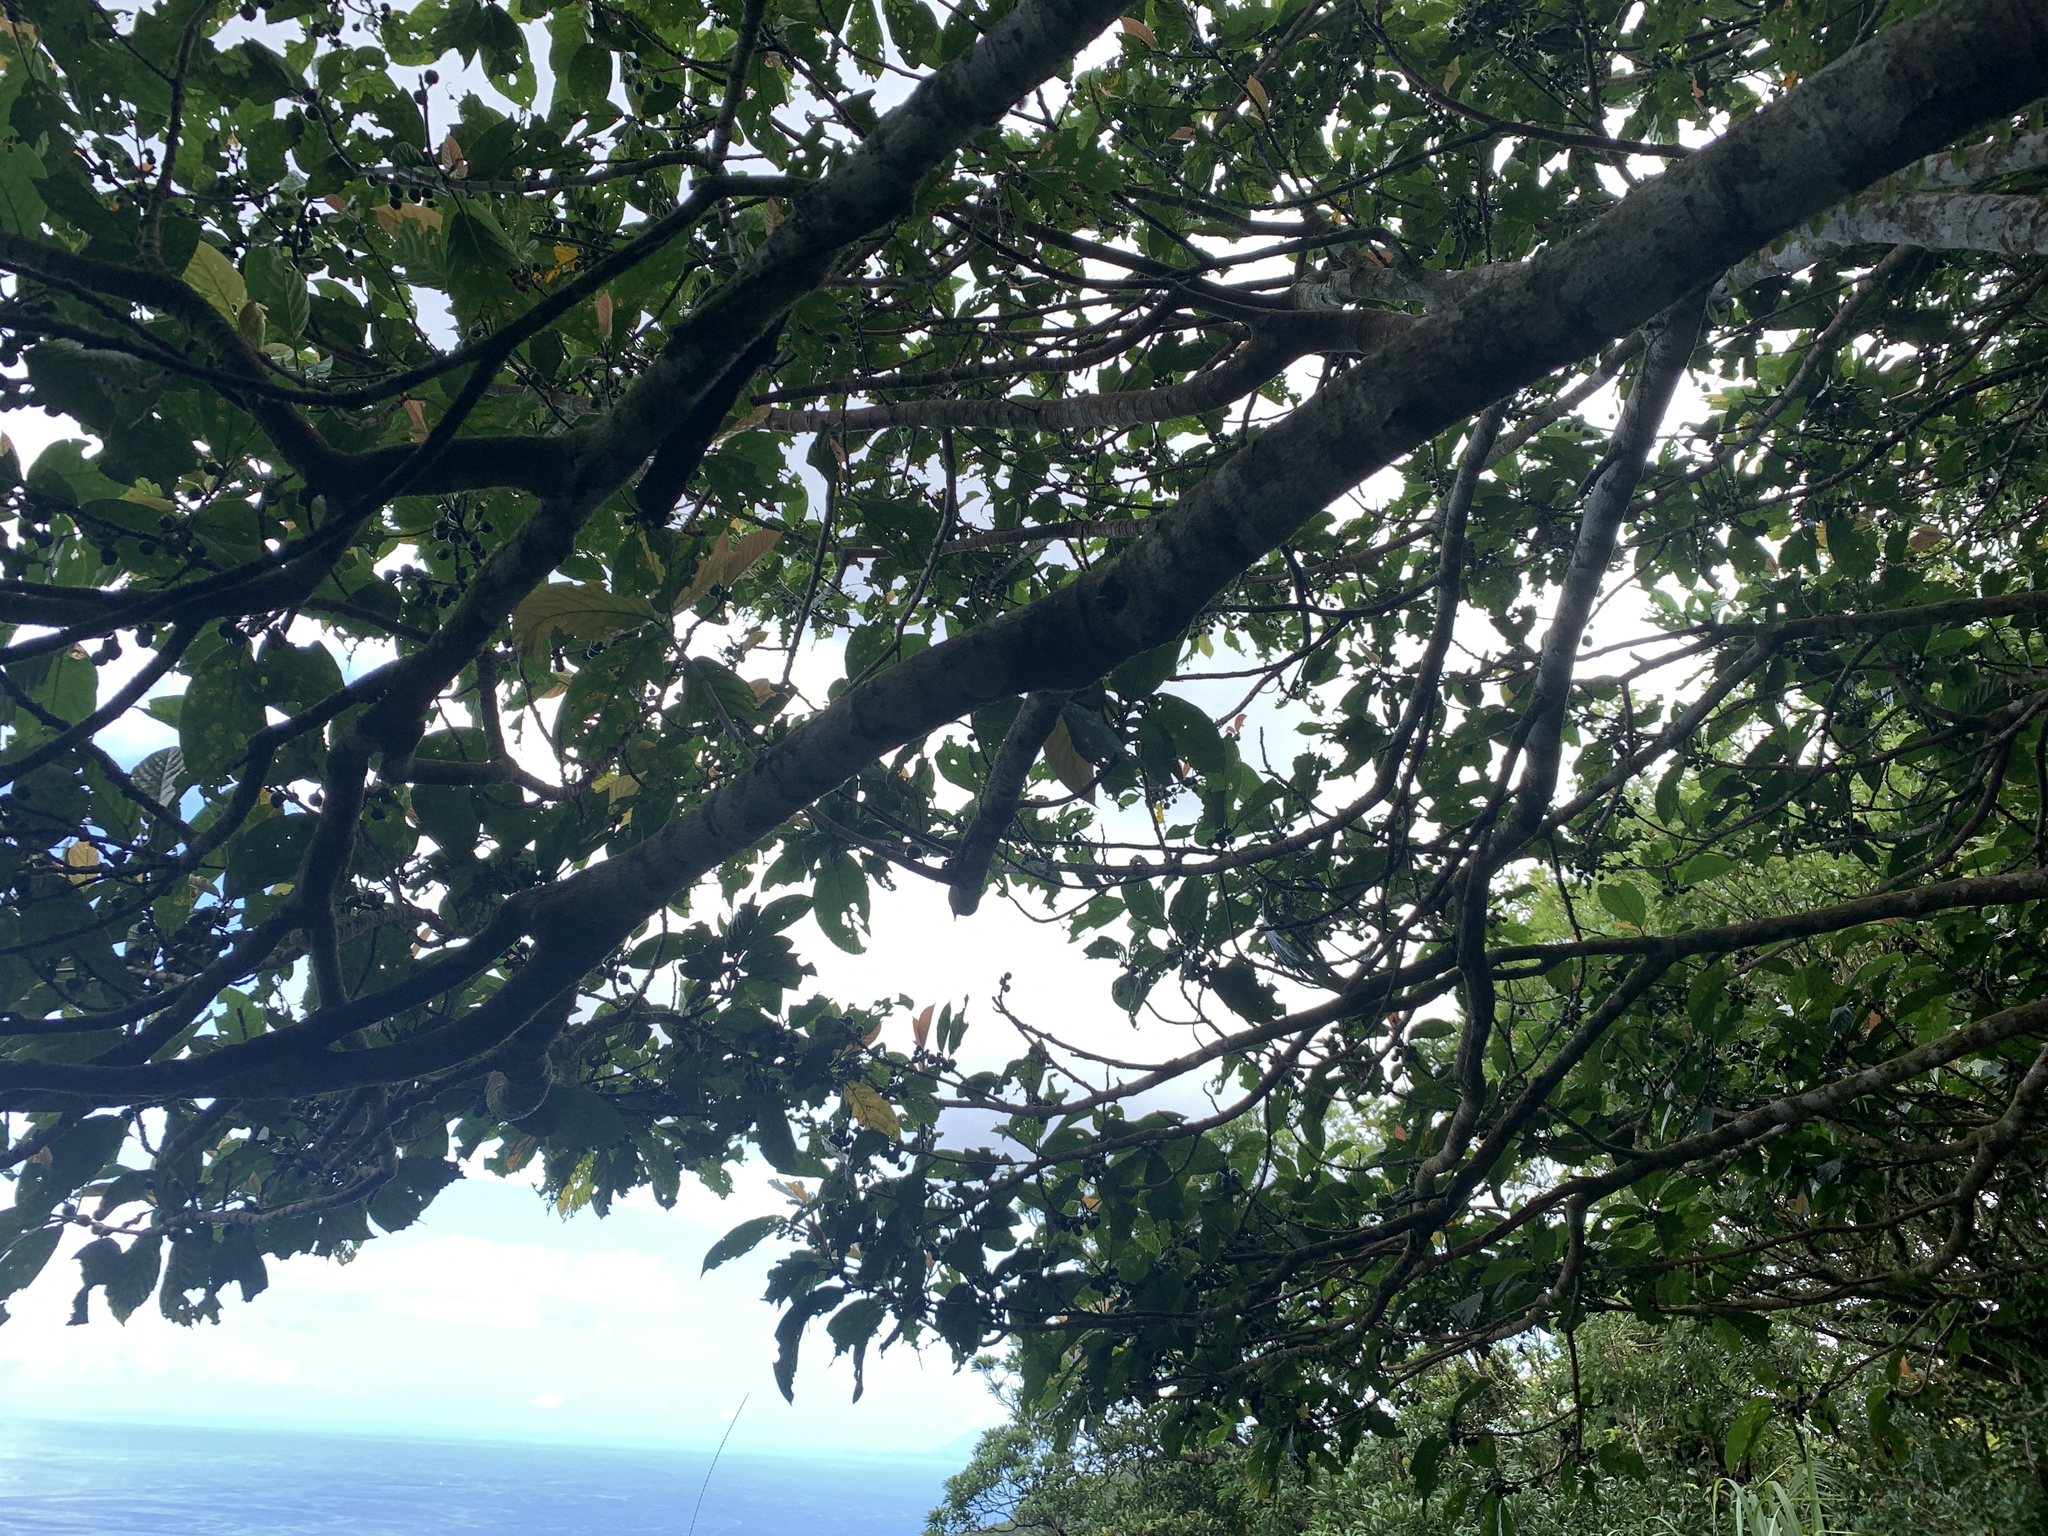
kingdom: Plantae
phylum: Tracheophyta
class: Magnoliopsida
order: Rosales
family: Moraceae
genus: Ficus
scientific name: Ficus benguetensis
